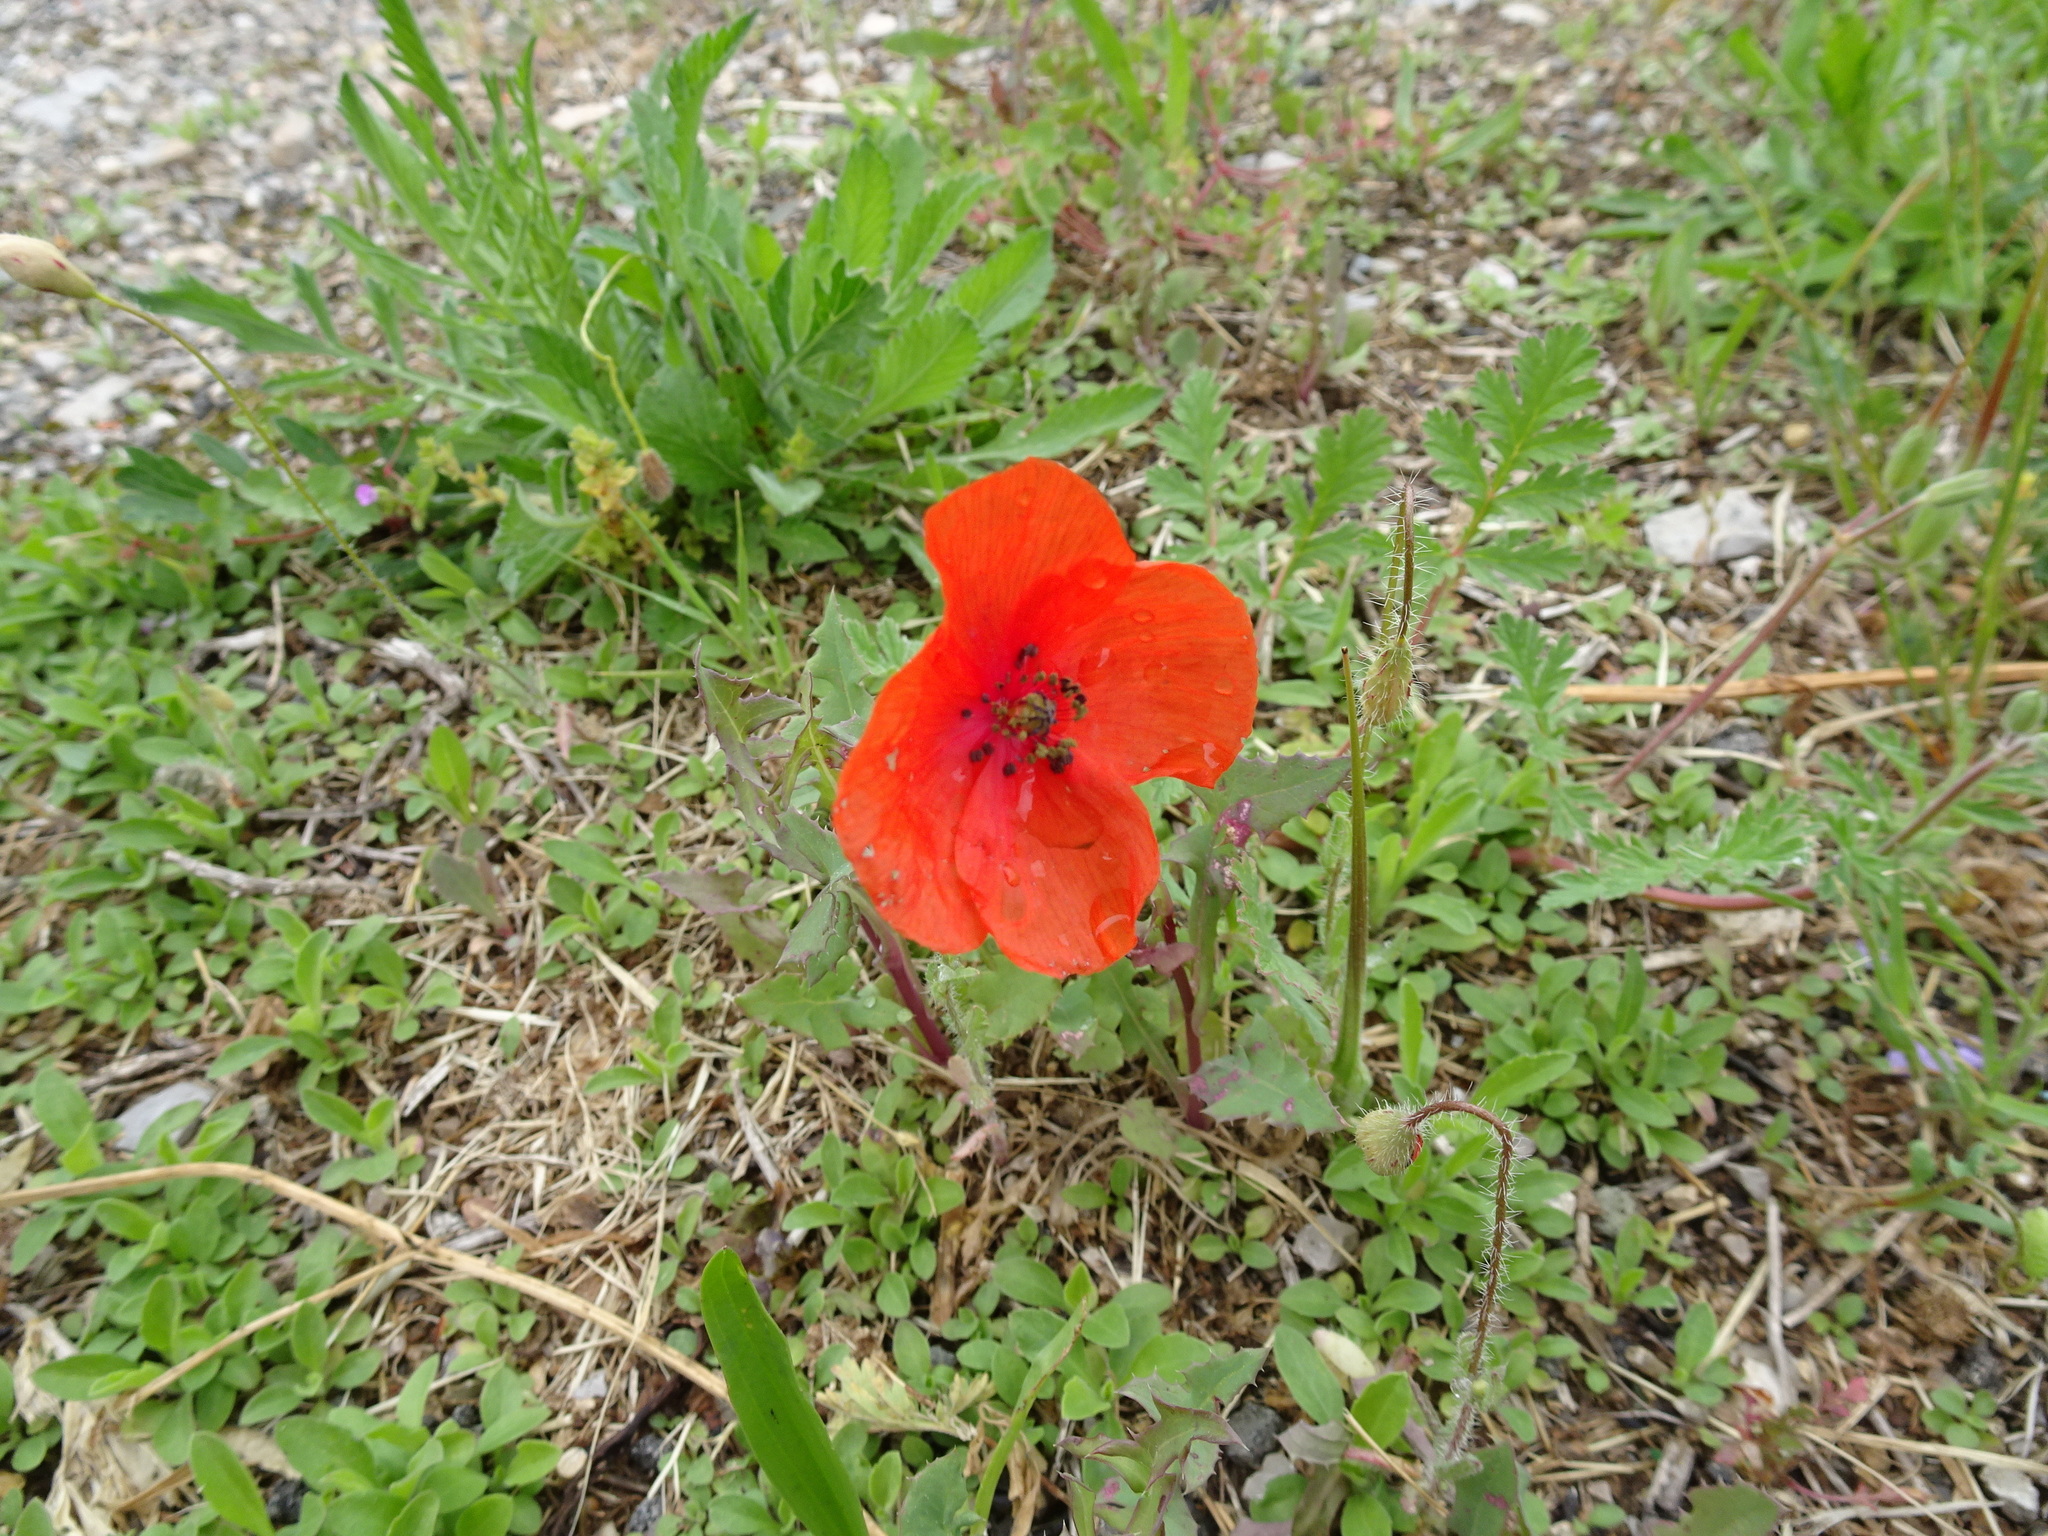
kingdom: Plantae
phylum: Tracheophyta
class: Magnoliopsida
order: Ranunculales
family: Papaveraceae
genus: Papaver
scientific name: Papaver rhoeas
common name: Corn poppy
